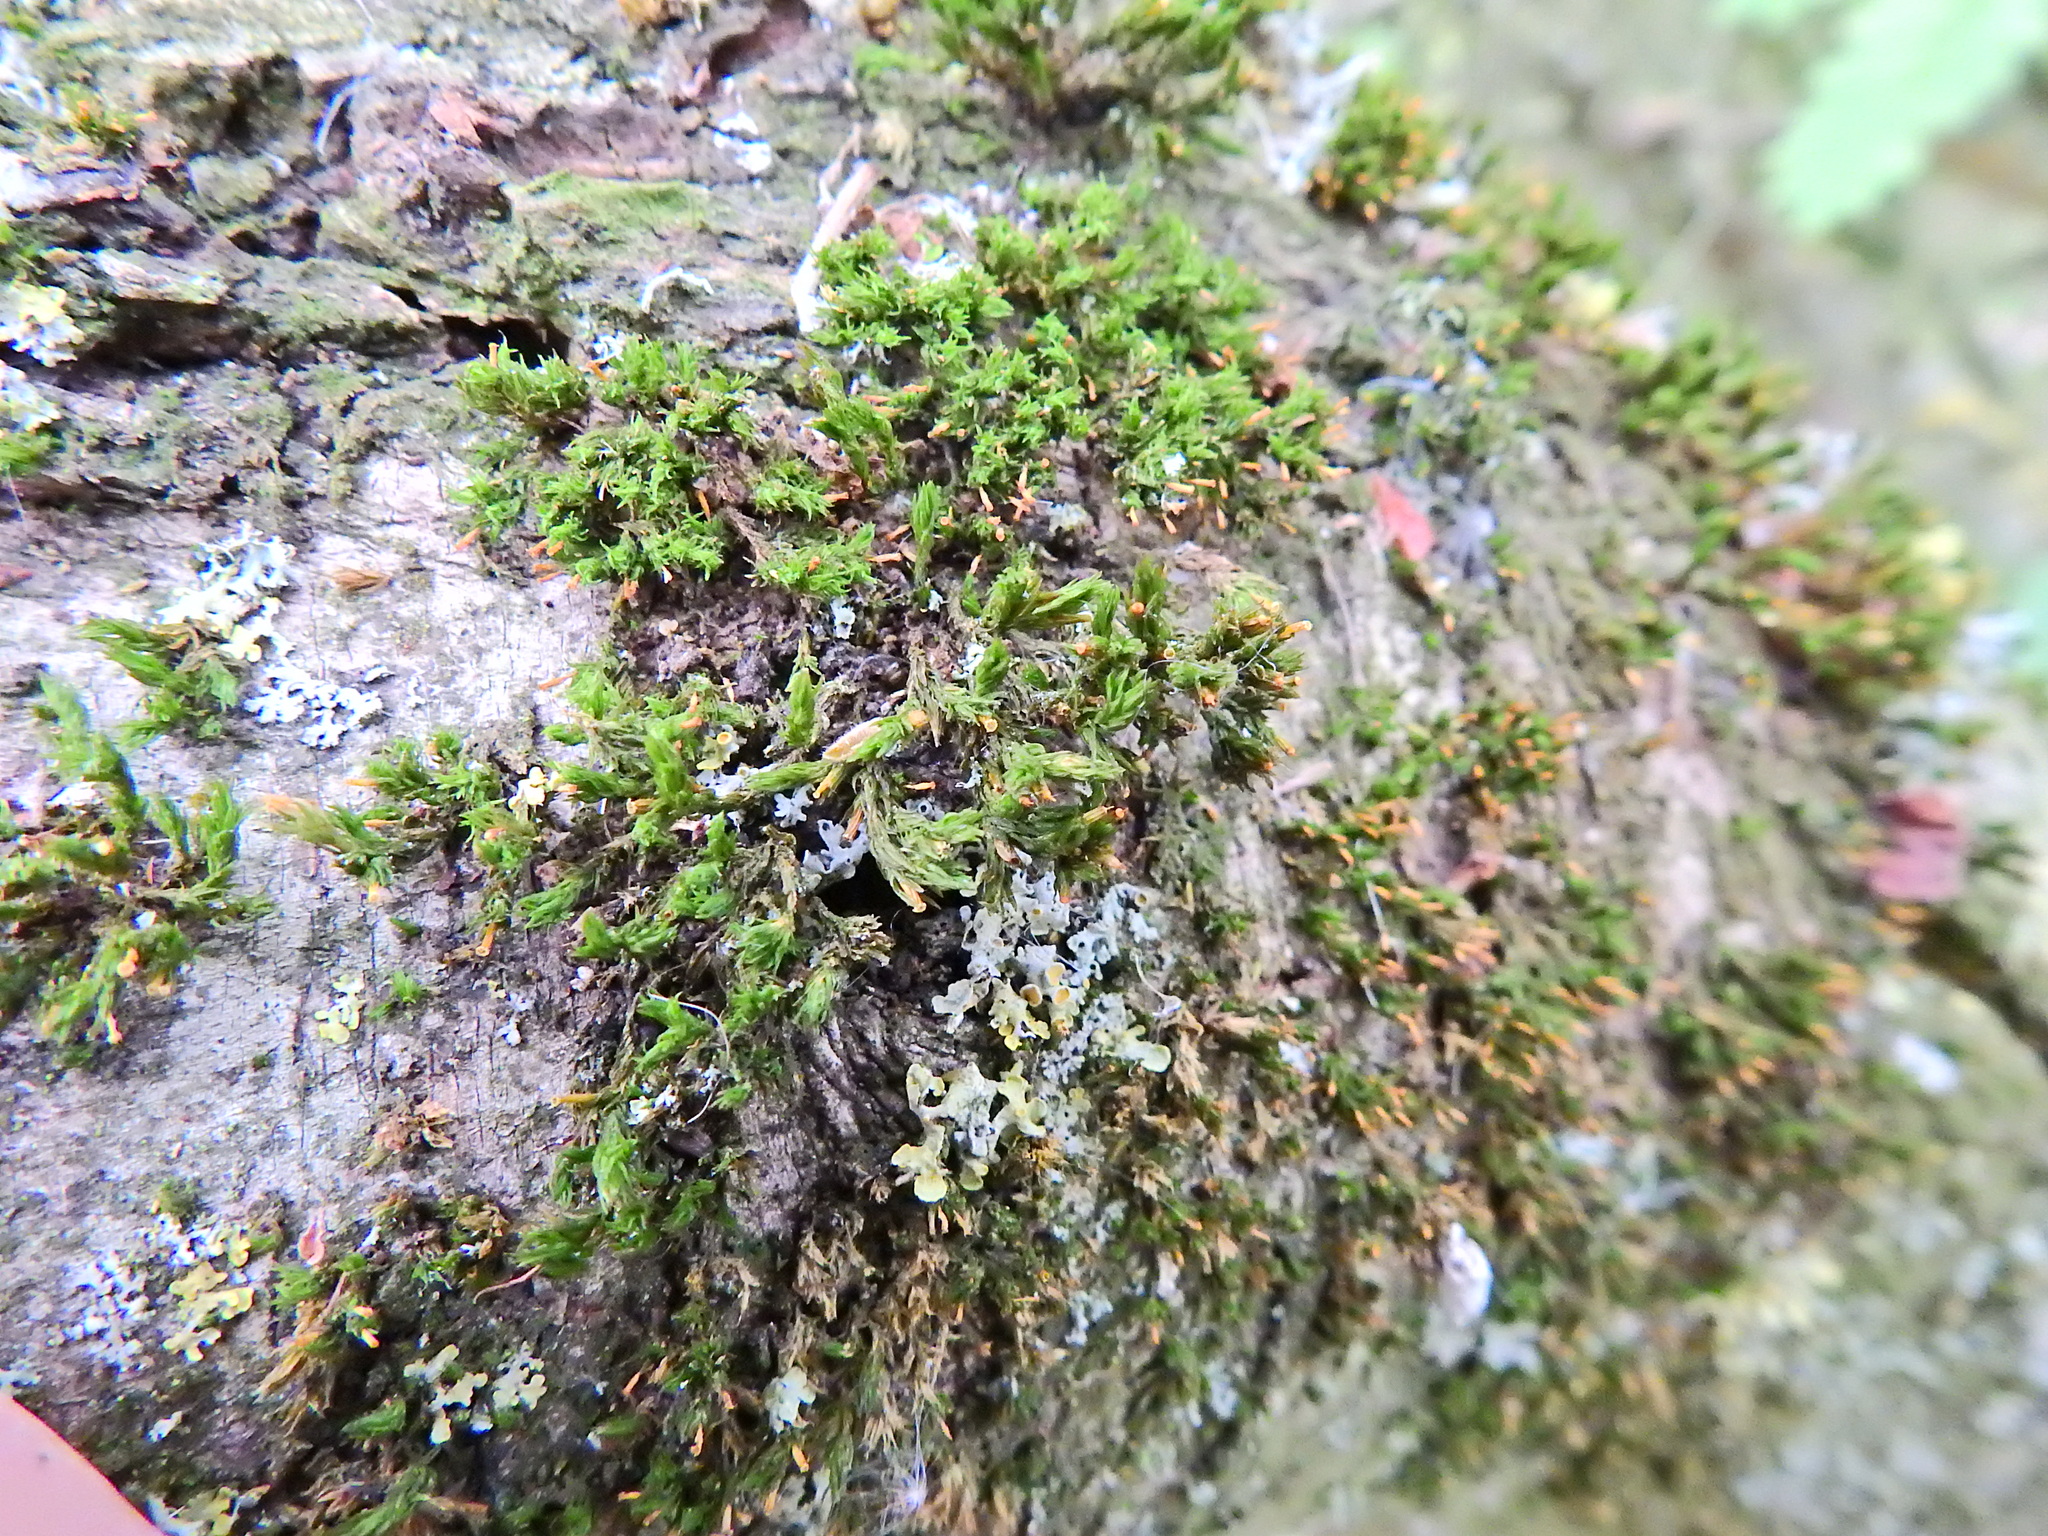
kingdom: Plantae
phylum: Bryophyta
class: Bryopsida
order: Orthotrichales
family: Orthotrichaceae
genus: Orthotrichum
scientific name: Orthotrichum pulchellum
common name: Elegant bristle-moss
